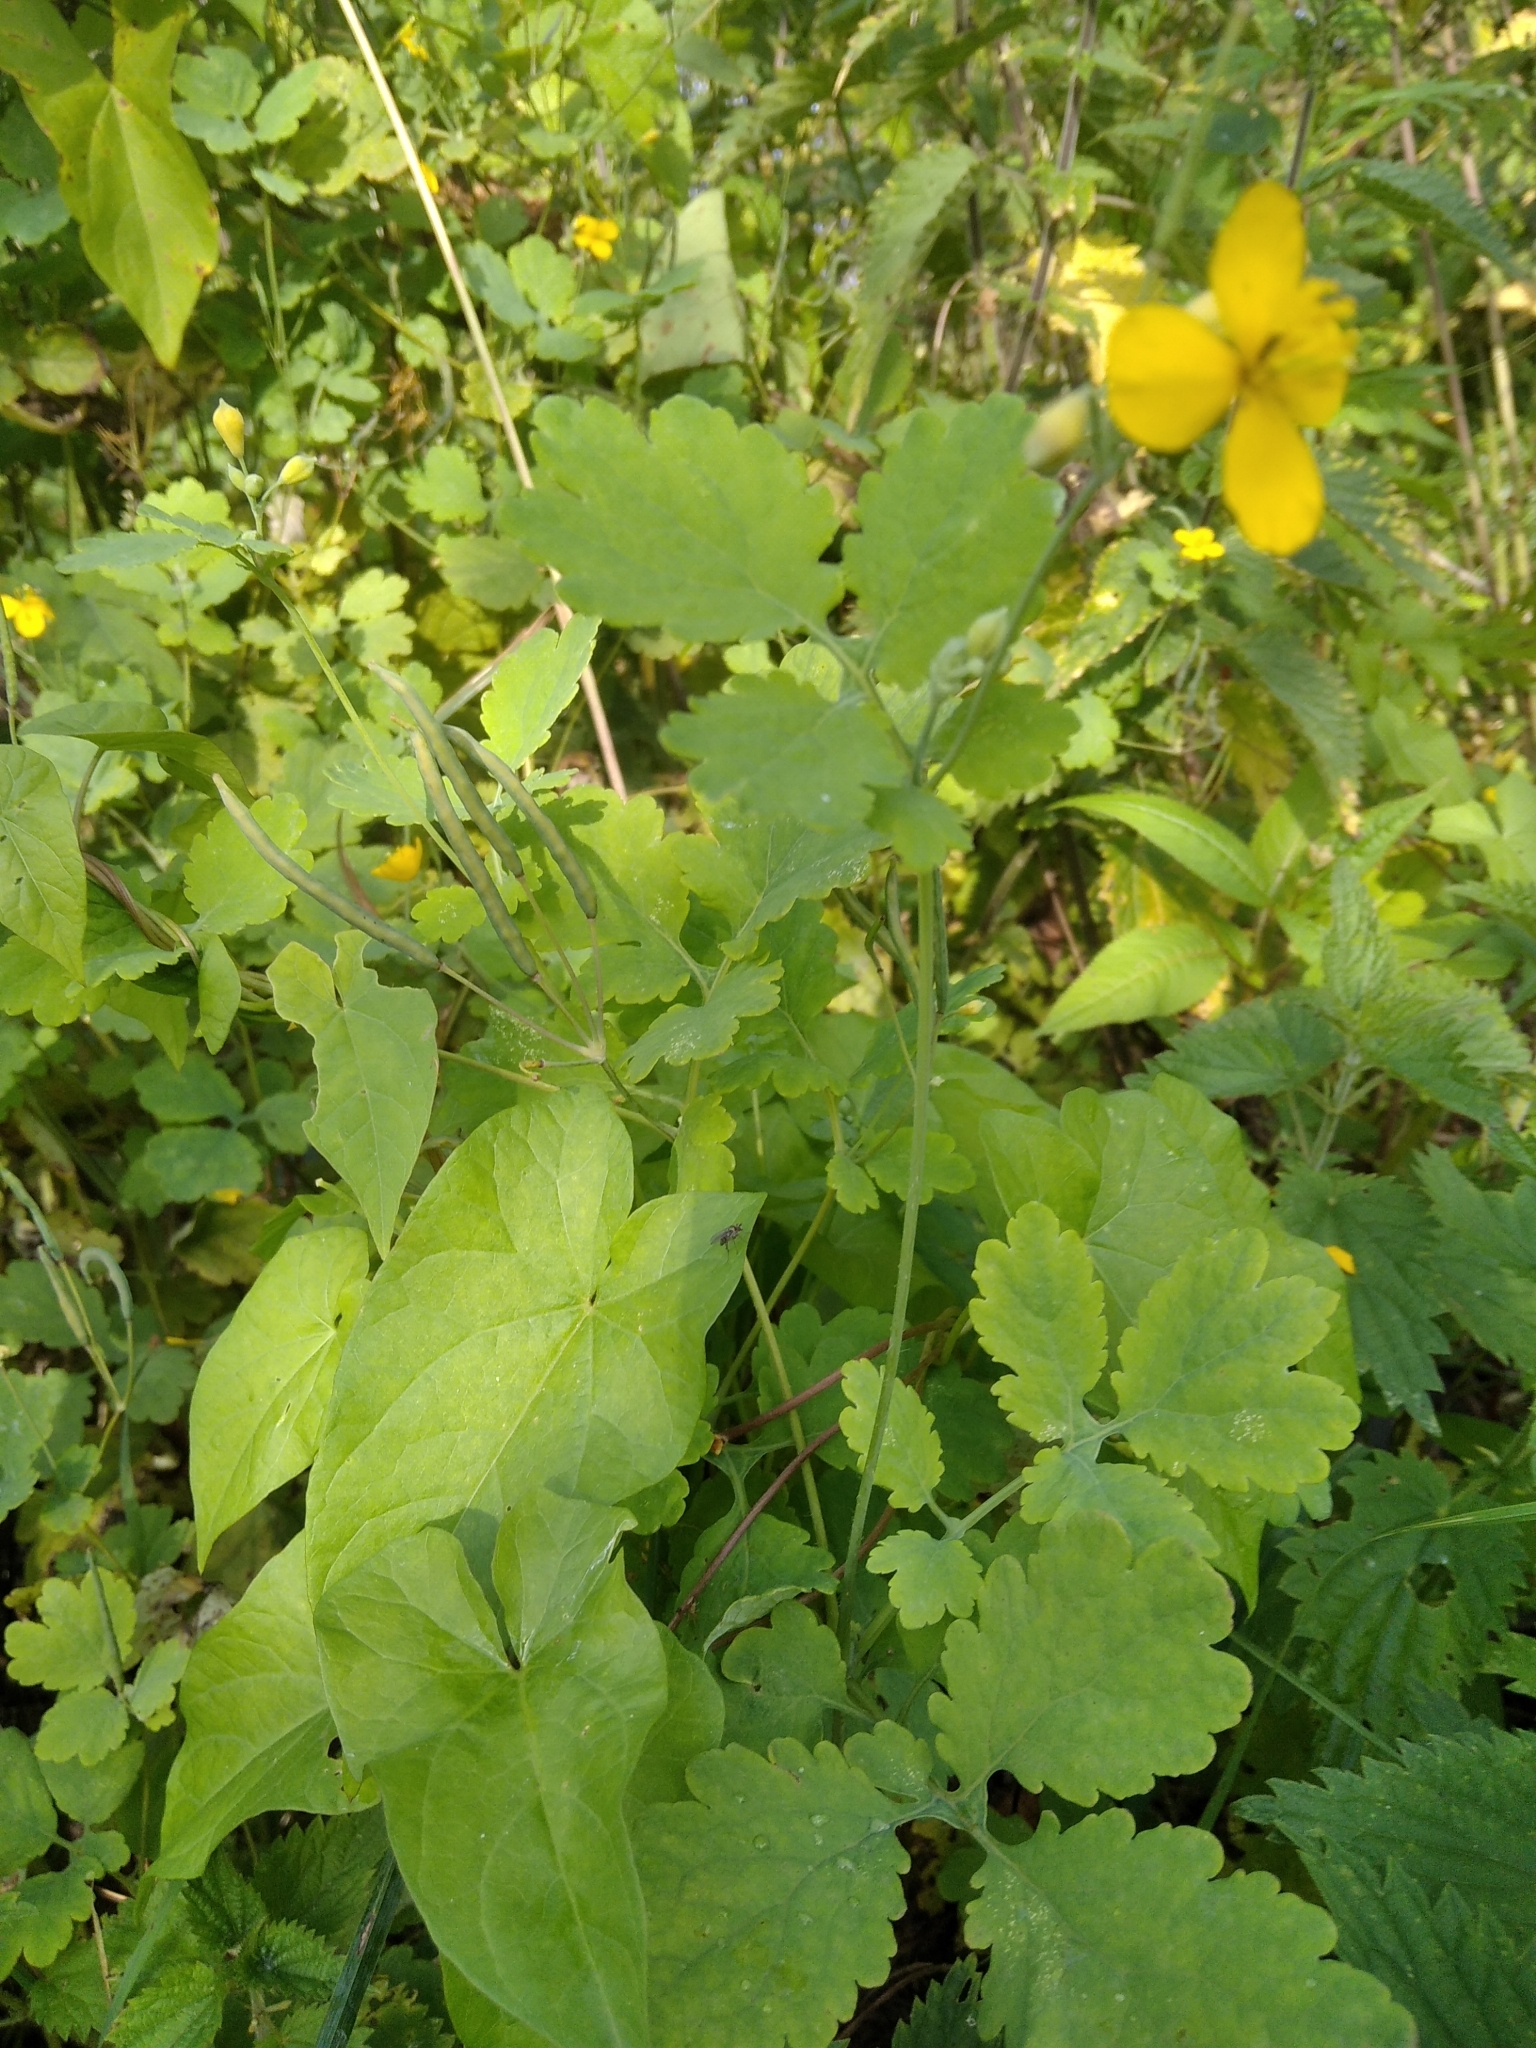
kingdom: Plantae
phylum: Tracheophyta
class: Magnoliopsida
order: Ranunculales
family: Papaveraceae
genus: Chelidonium
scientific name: Chelidonium majus
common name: Greater celandine
